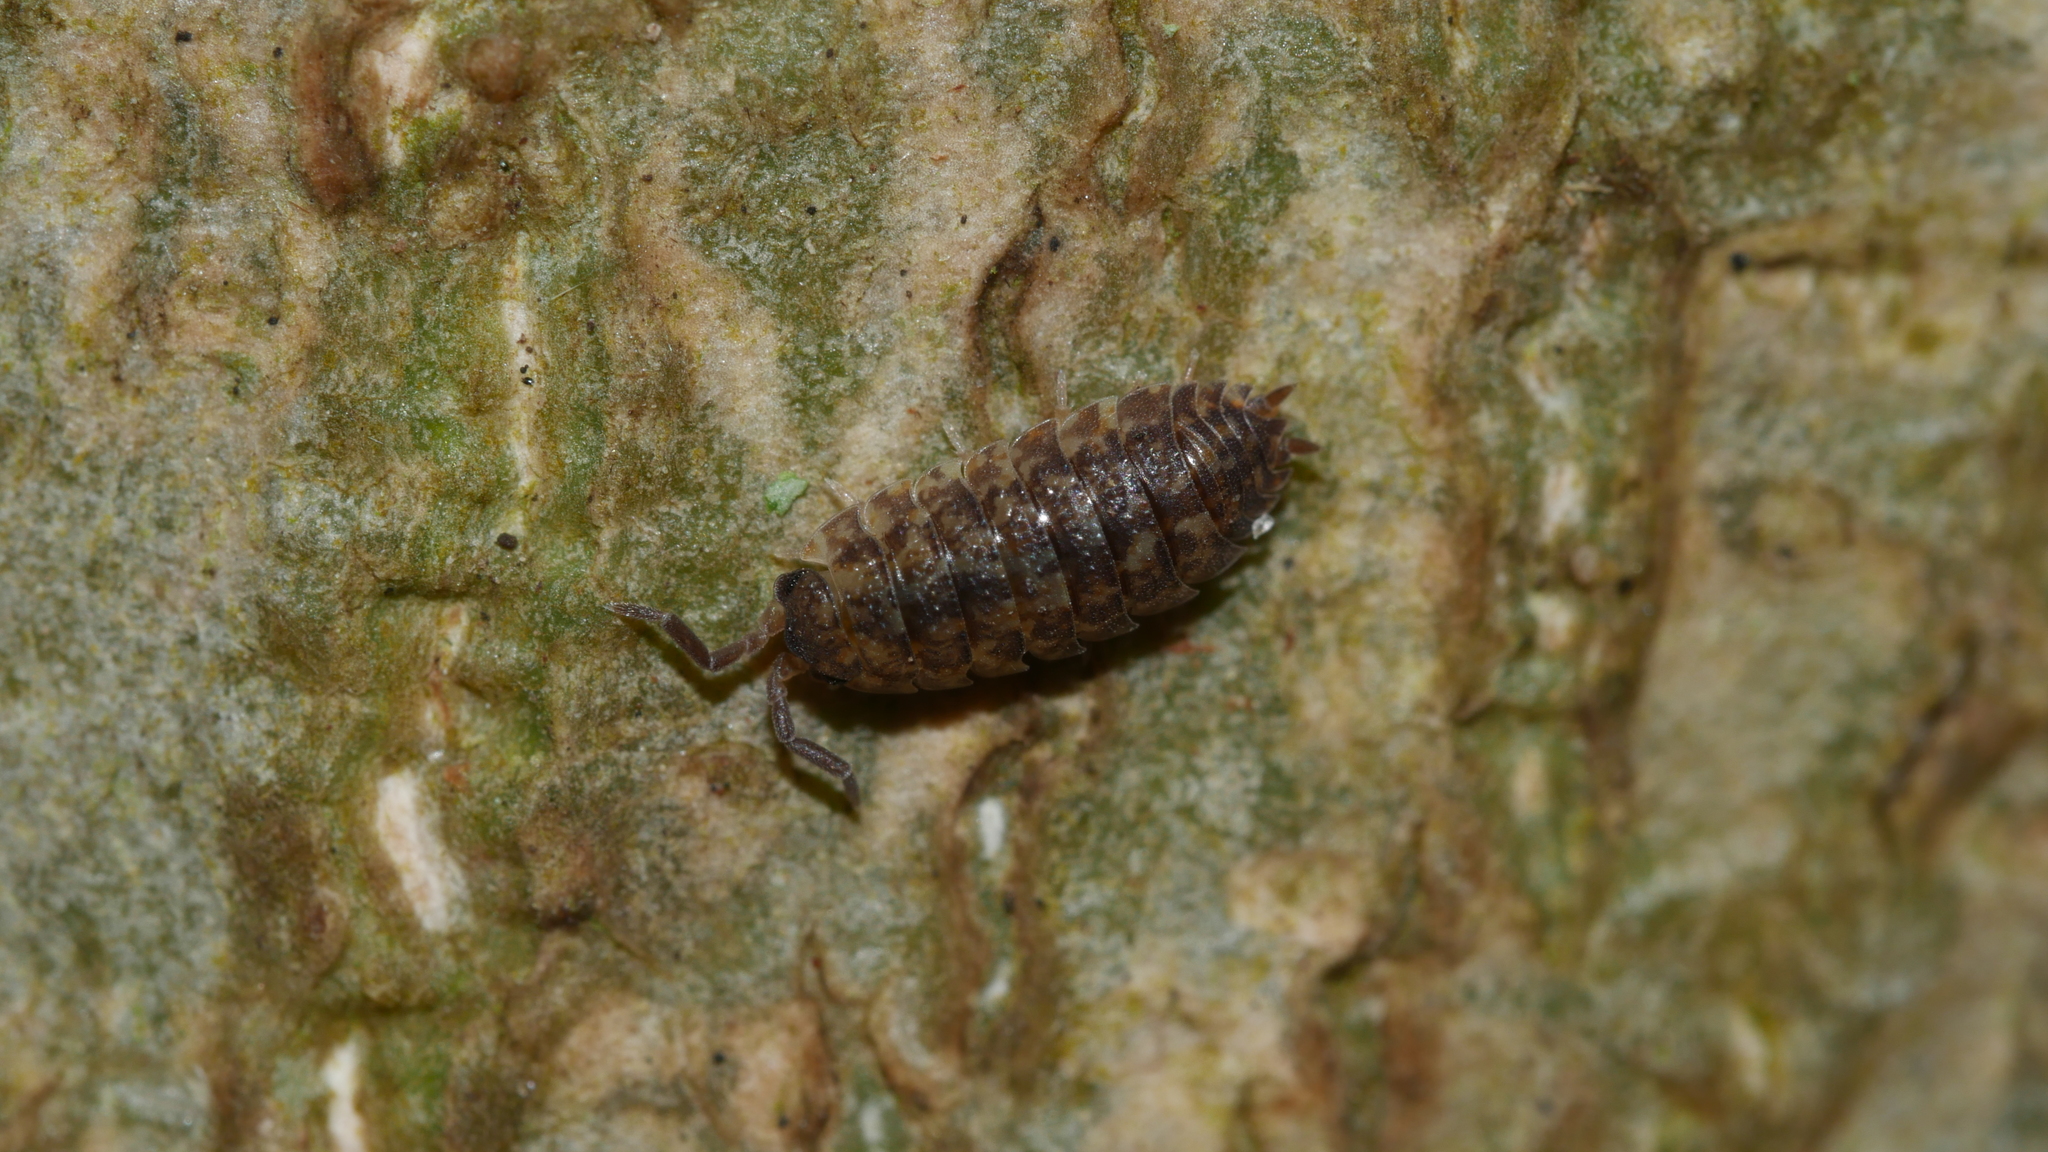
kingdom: Animalia
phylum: Arthropoda
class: Malacostraca
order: Isopoda
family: Porcellionidae
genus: Porcellio
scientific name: Porcellio scaber
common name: Common rough woodlouse
